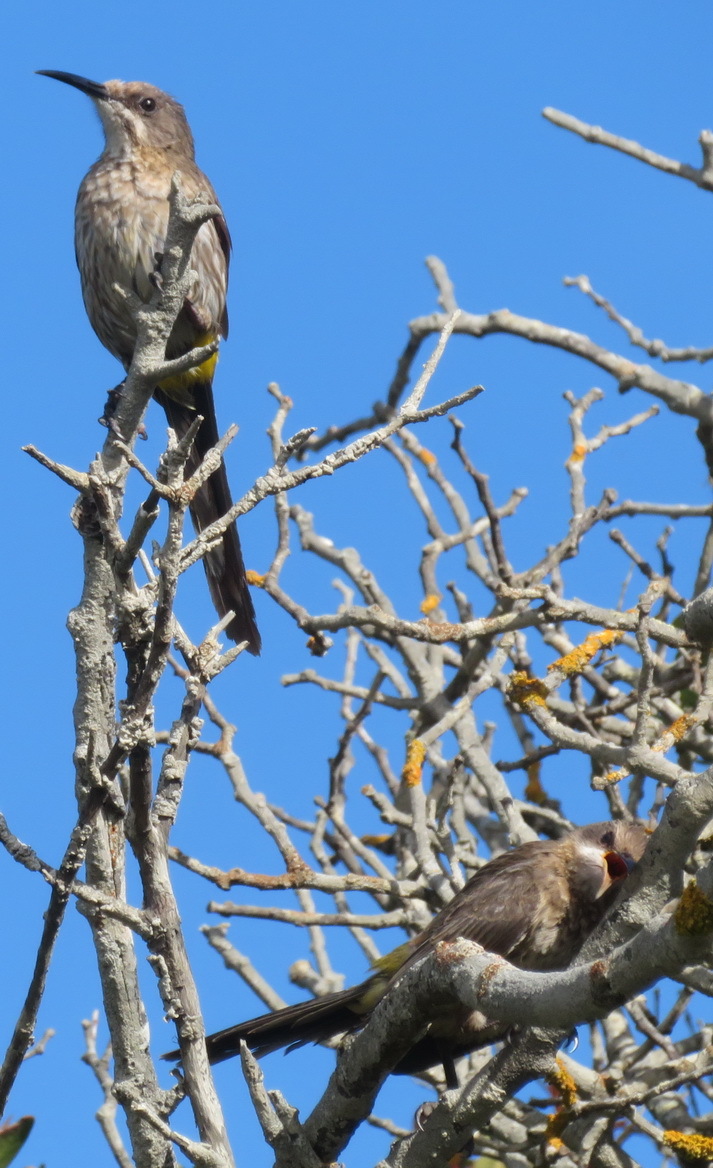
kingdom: Animalia
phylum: Chordata
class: Aves
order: Passeriformes
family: Promeropidae
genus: Promerops
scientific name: Promerops cafer
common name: Cape sugarbird
